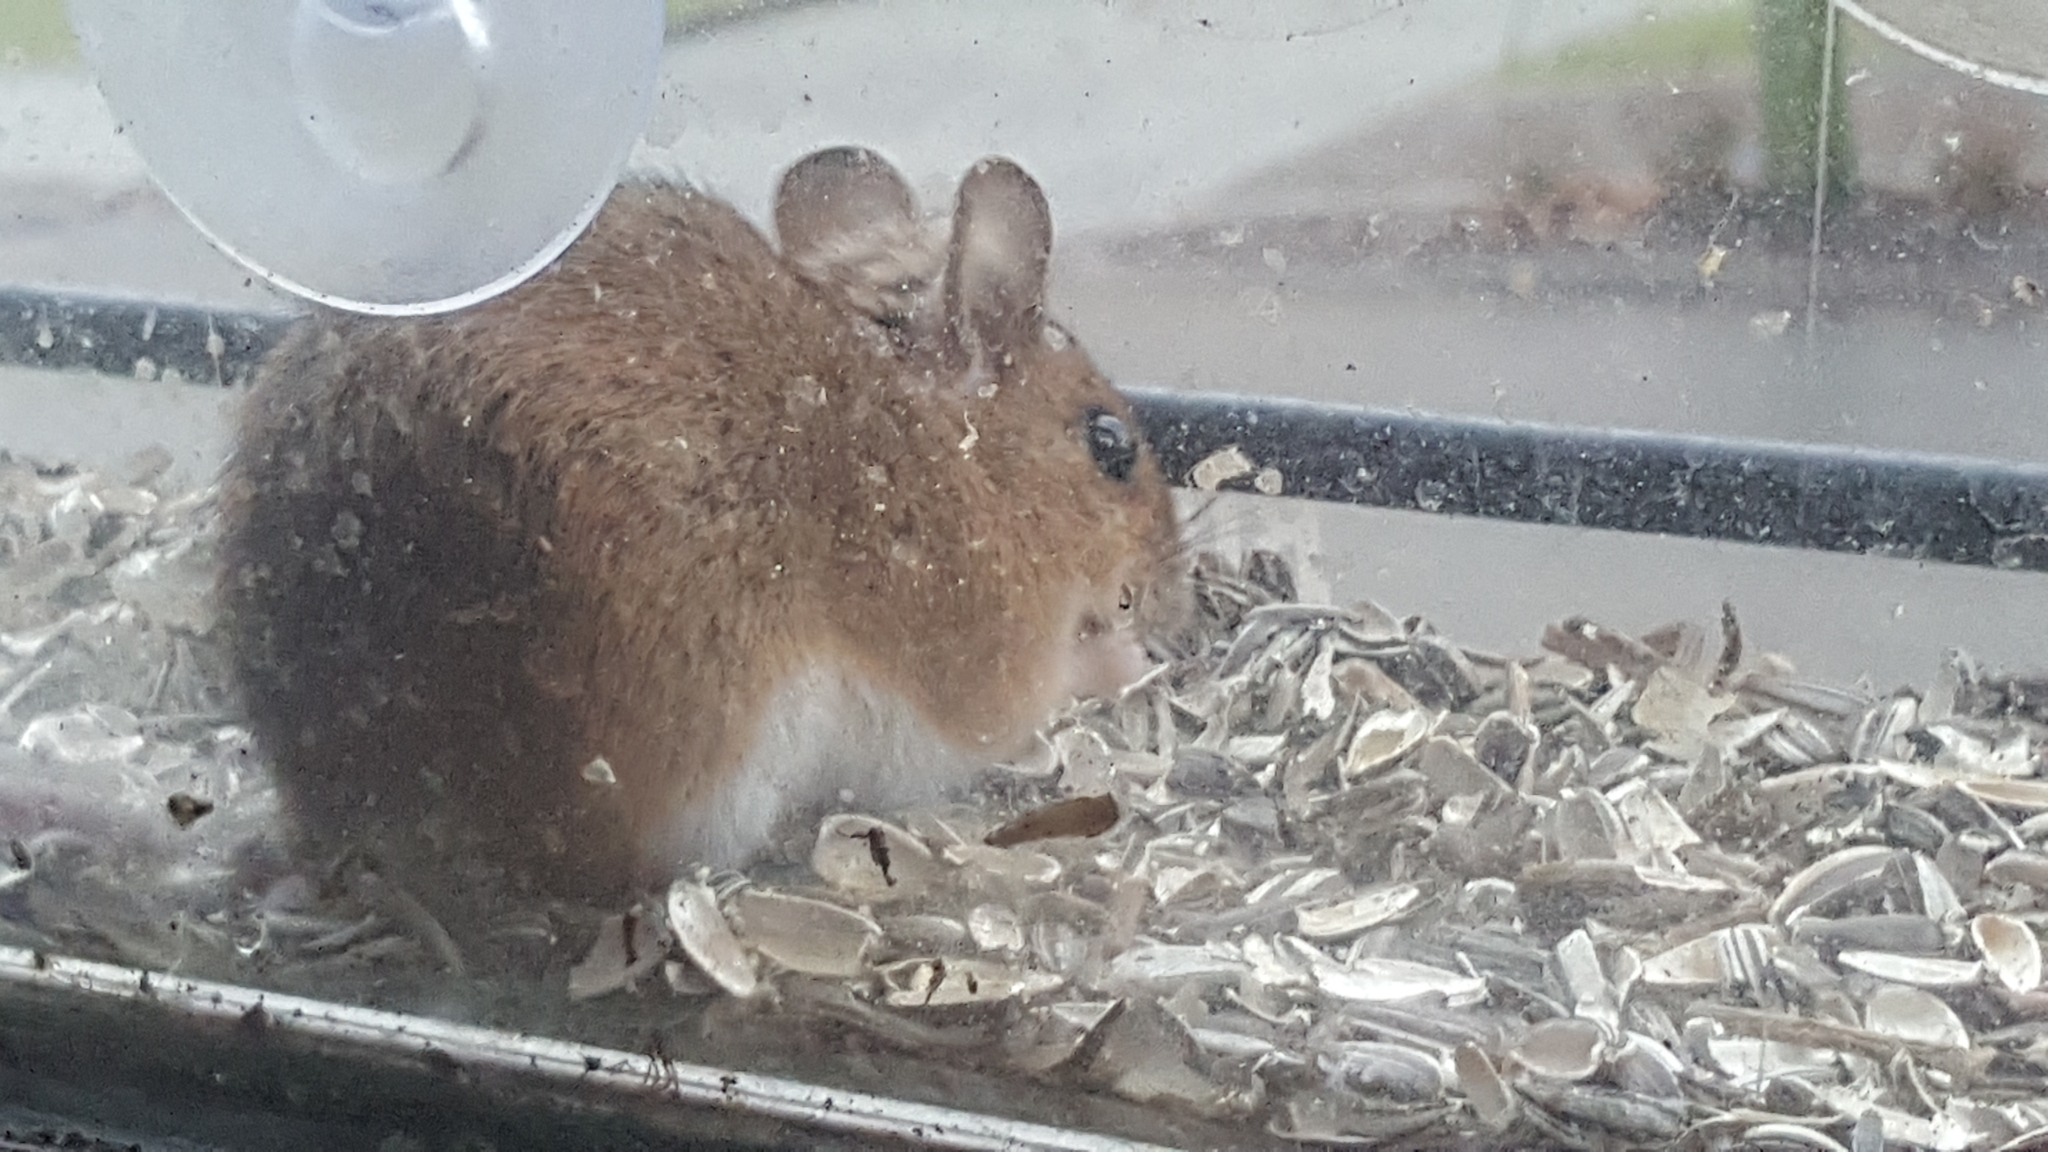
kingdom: Animalia
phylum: Chordata
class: Mammalia
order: Rodentia
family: Muridae
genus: Apodemus
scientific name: Apodemus flavicollis
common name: Yellow-necked field mouse
